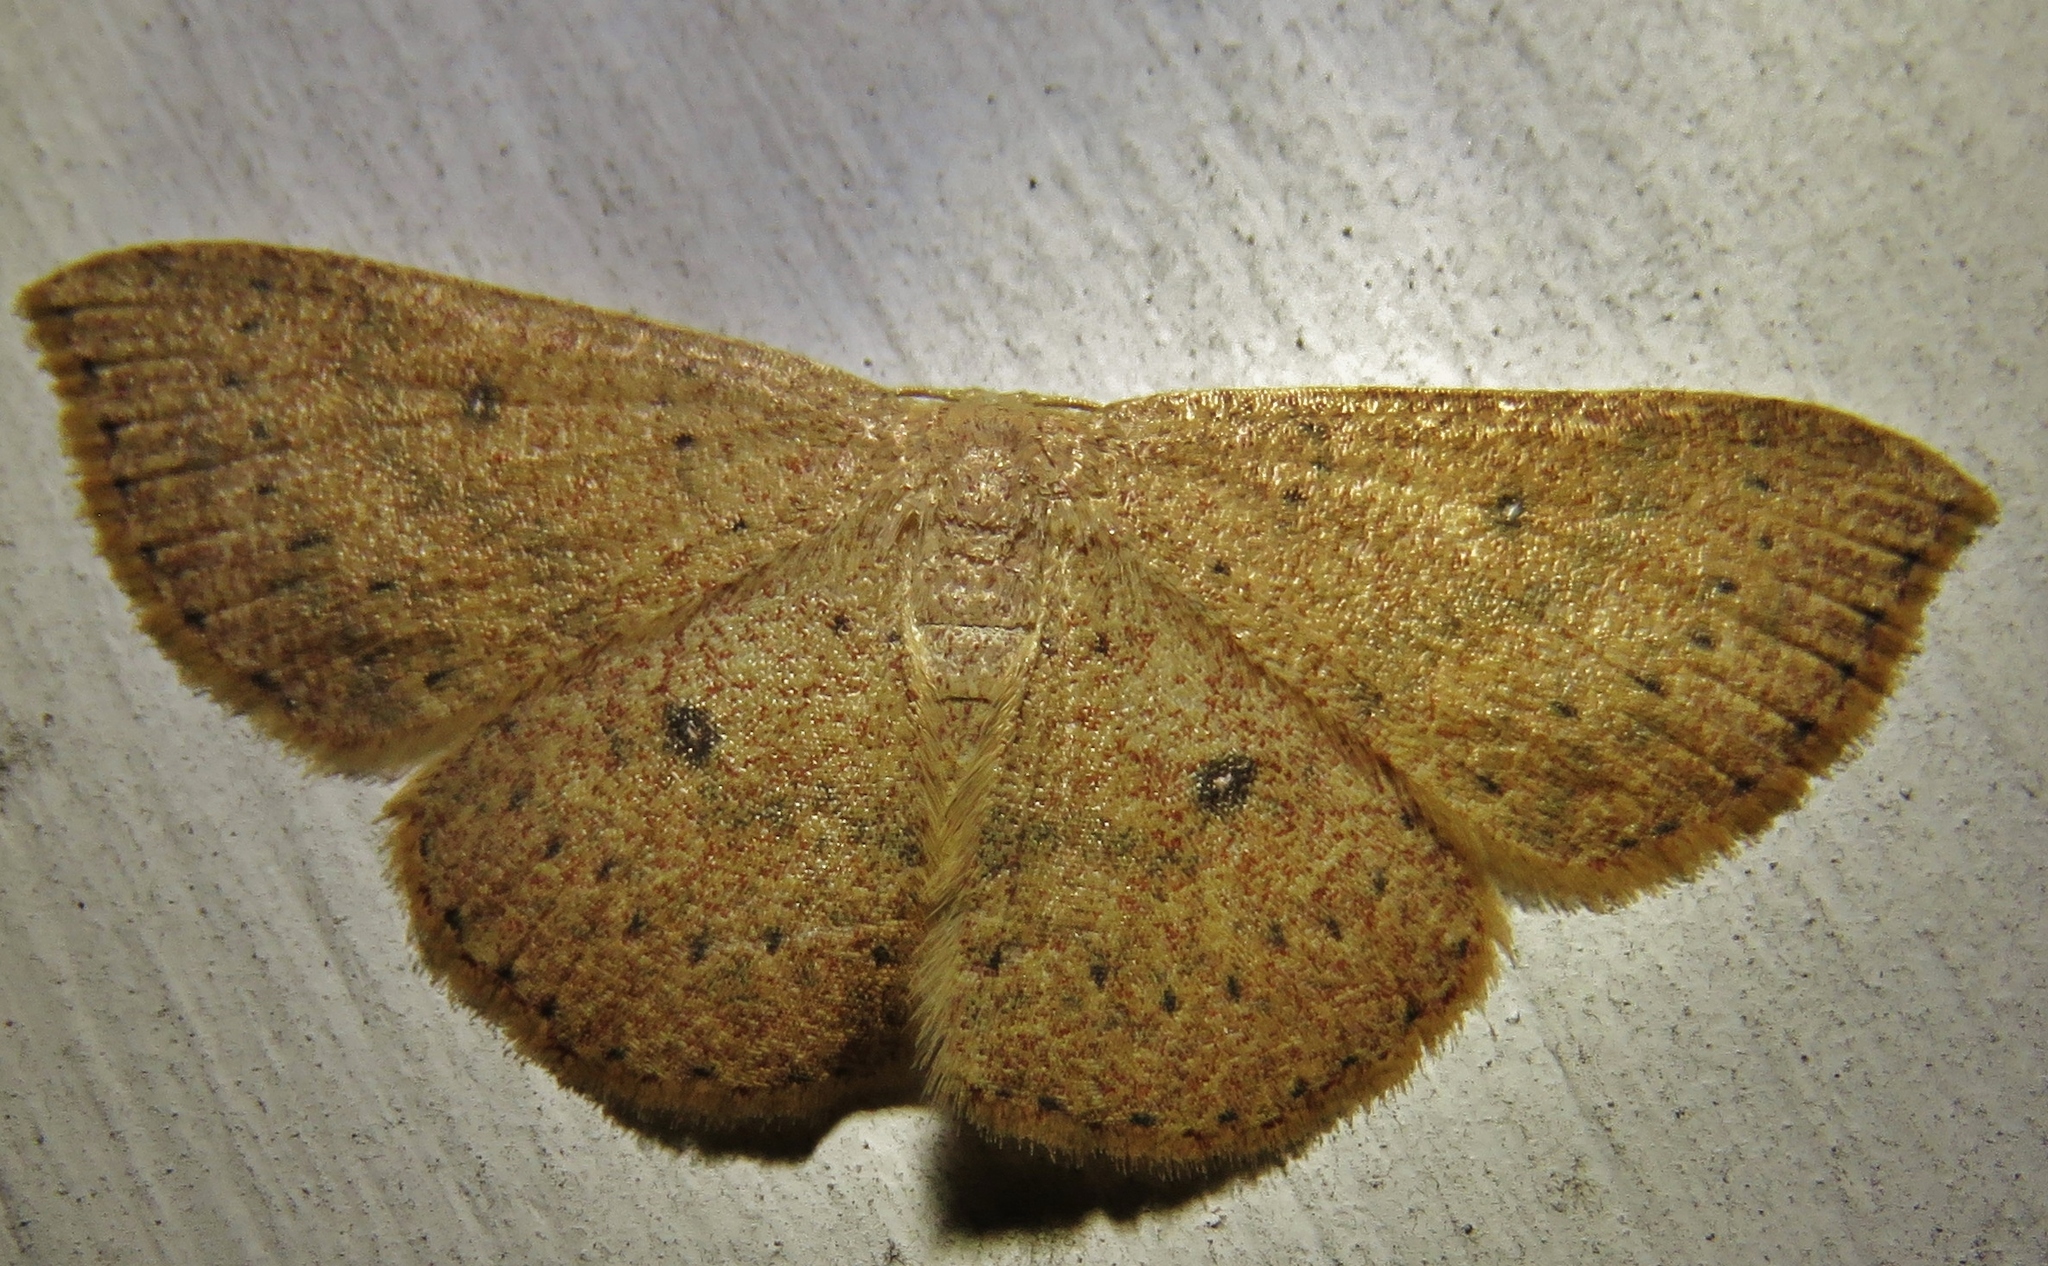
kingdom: Animalia
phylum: Arthropoda
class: Insecta
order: Lepidoptera
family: Geometridae
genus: Cyclophora
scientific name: Cyclophora packardi
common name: Packard's wave
